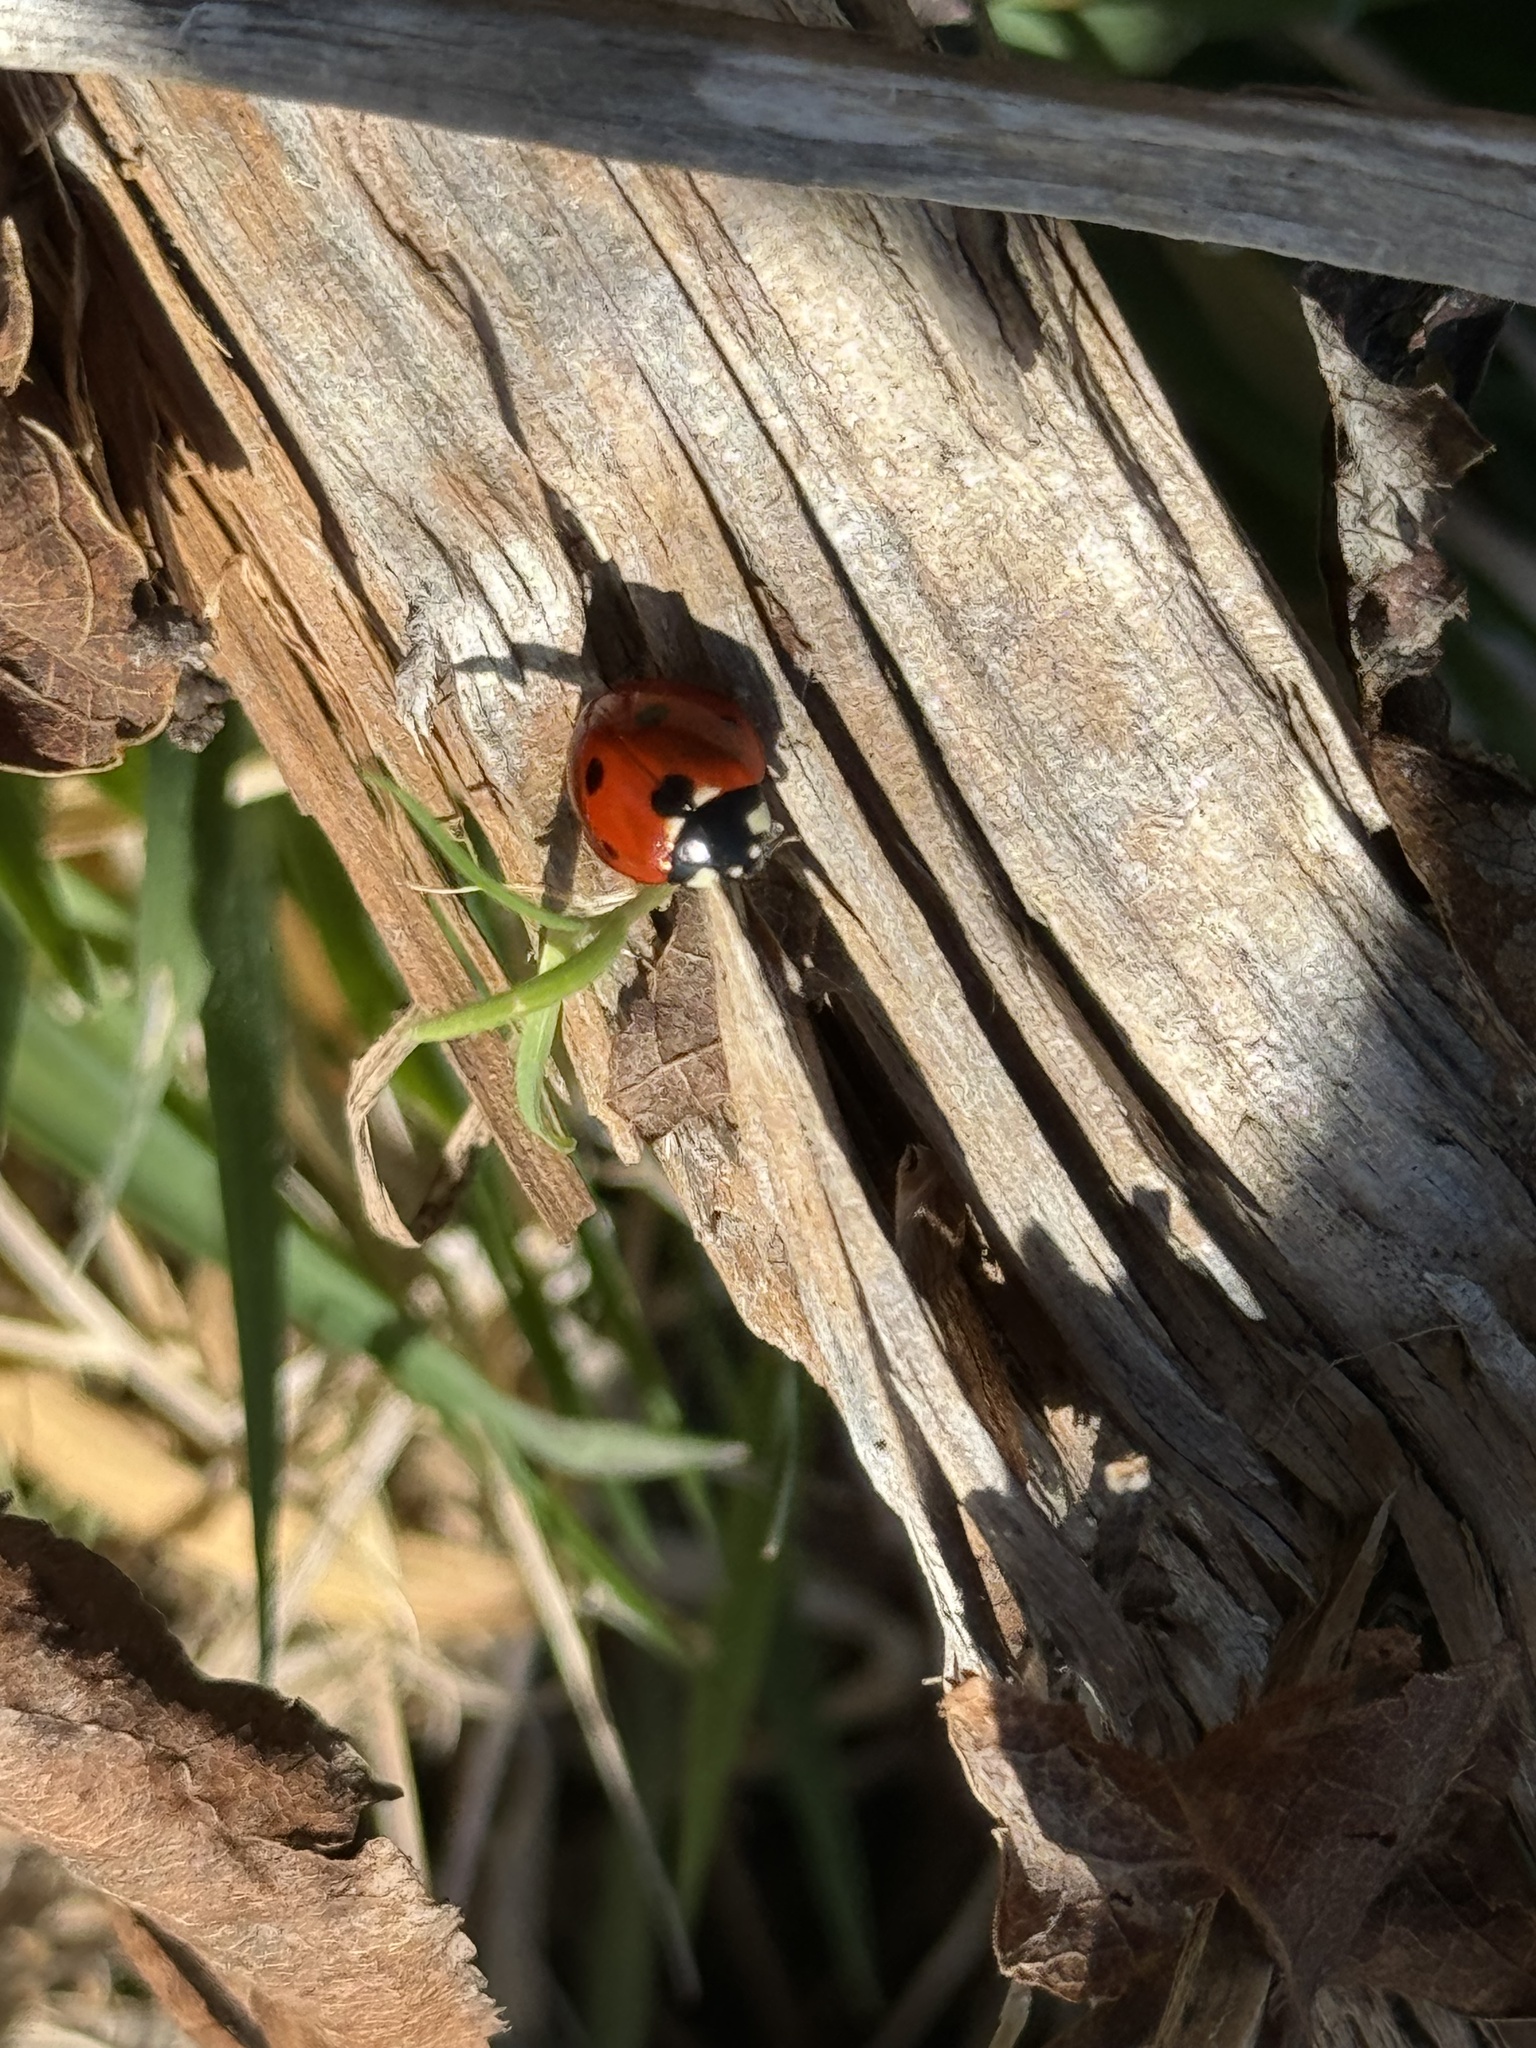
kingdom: Animalia
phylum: Arthropoda
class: Insecta
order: Coleoptera
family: Coccinellidae
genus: Coccinella
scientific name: Coccinella septempunctata
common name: Sevenspotted lady beetle
